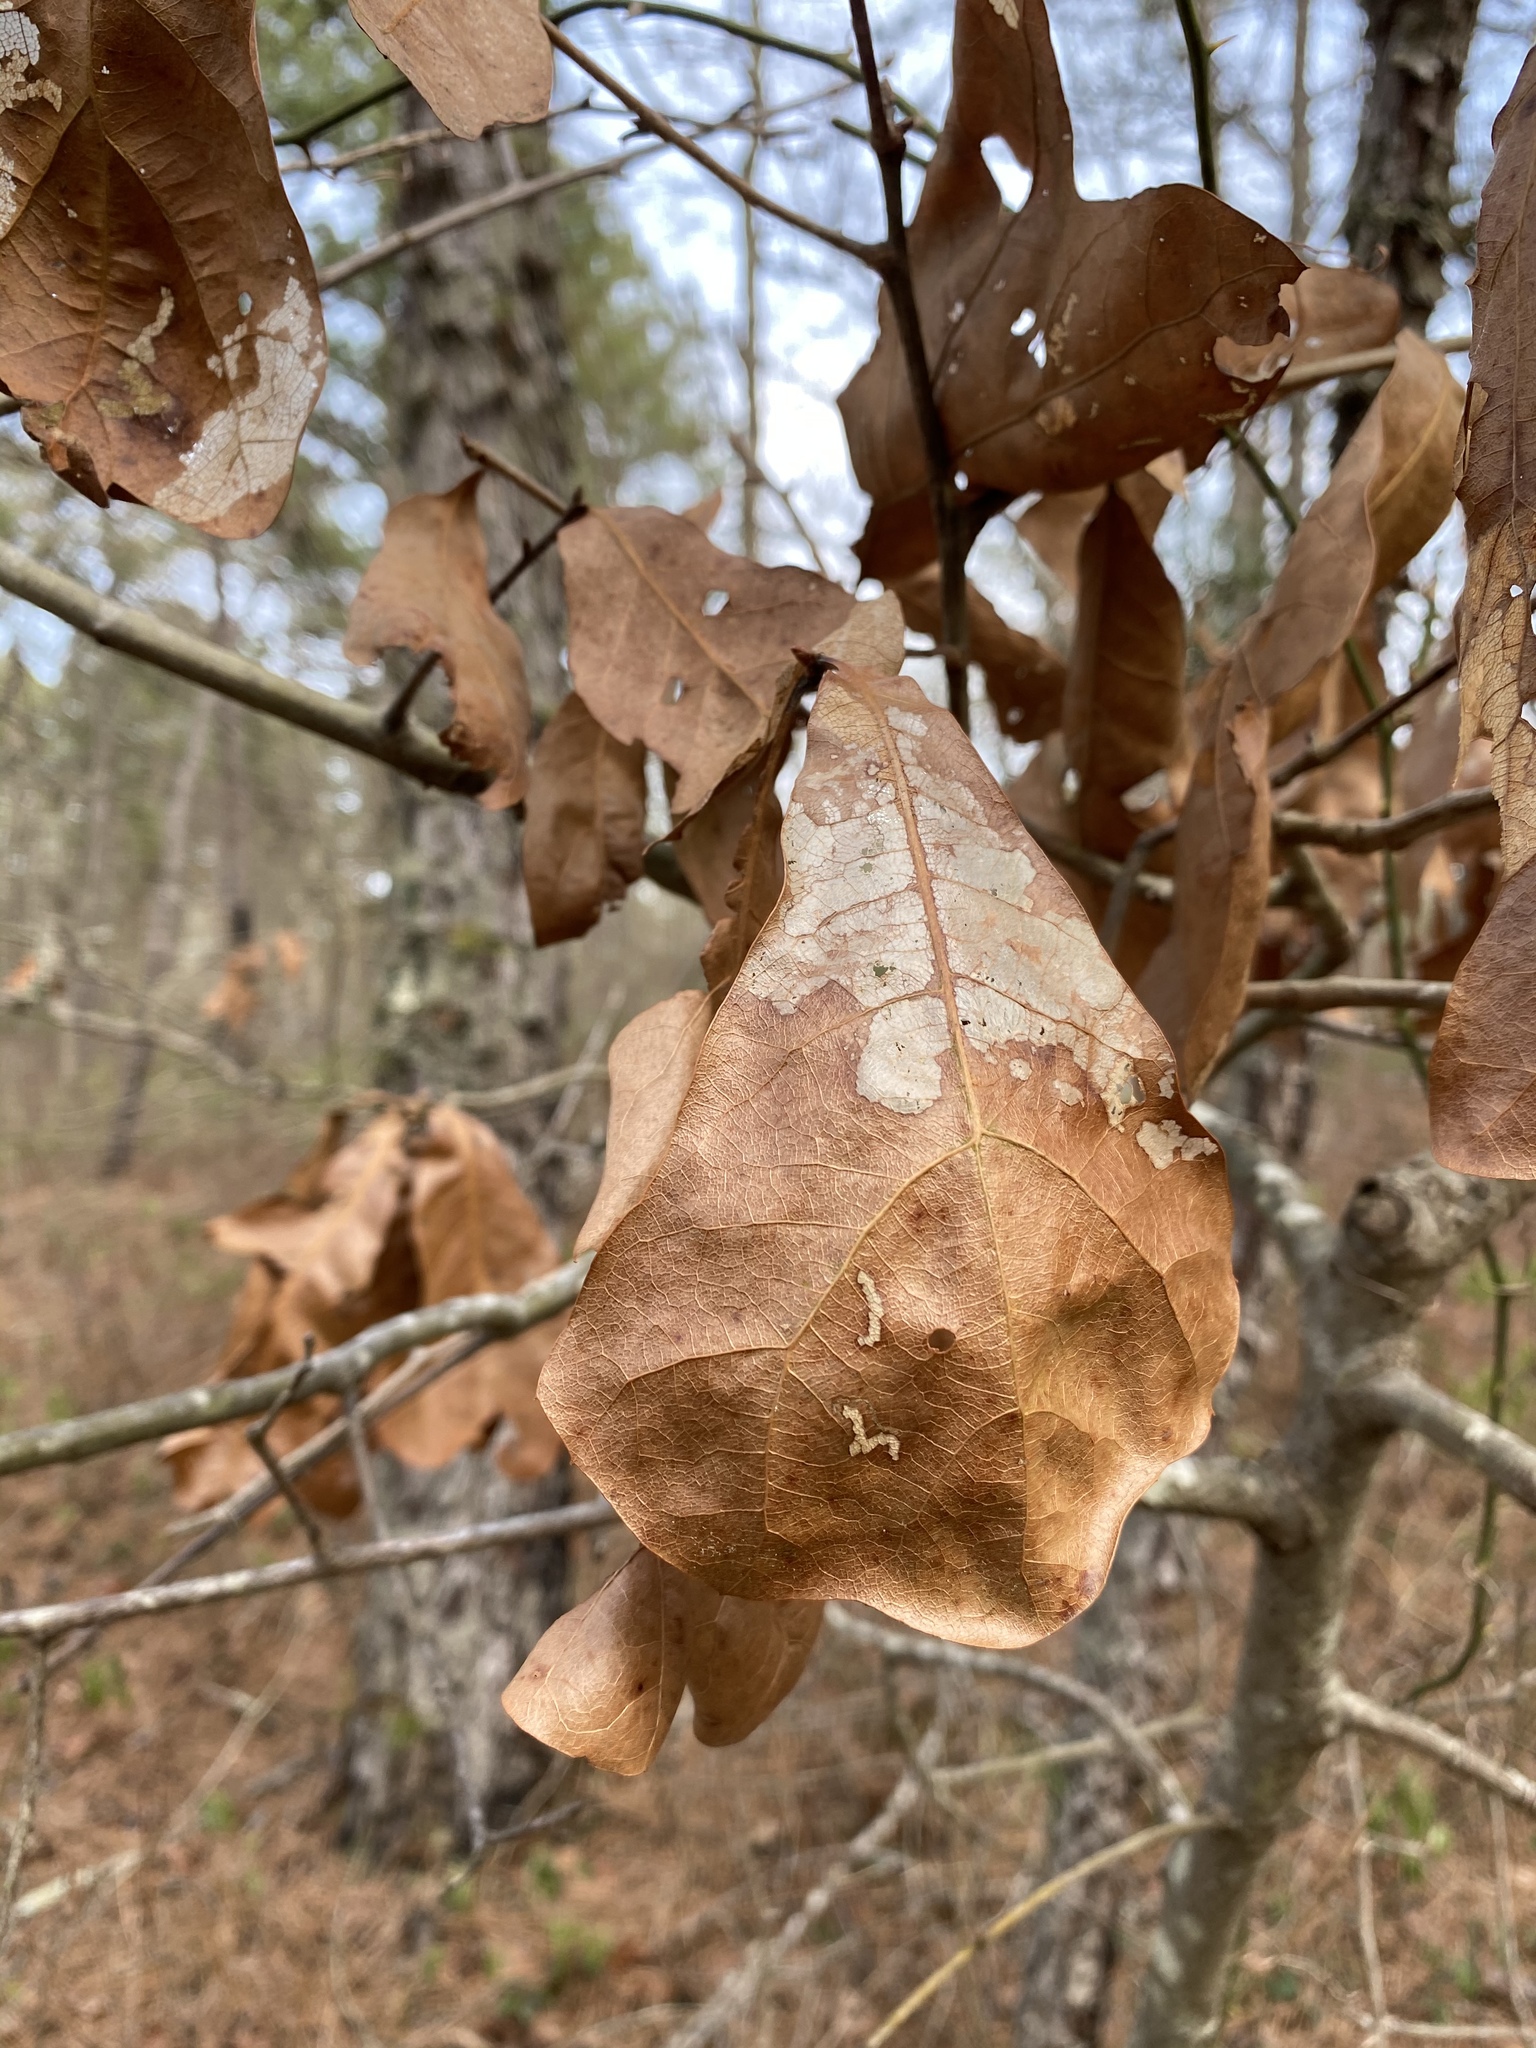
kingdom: Plantae
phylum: Tracheophyta
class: Magnoliopsida
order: Fagales
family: Fagaceae
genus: Quercus
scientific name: Quercus marilandica
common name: Blackjack oak
